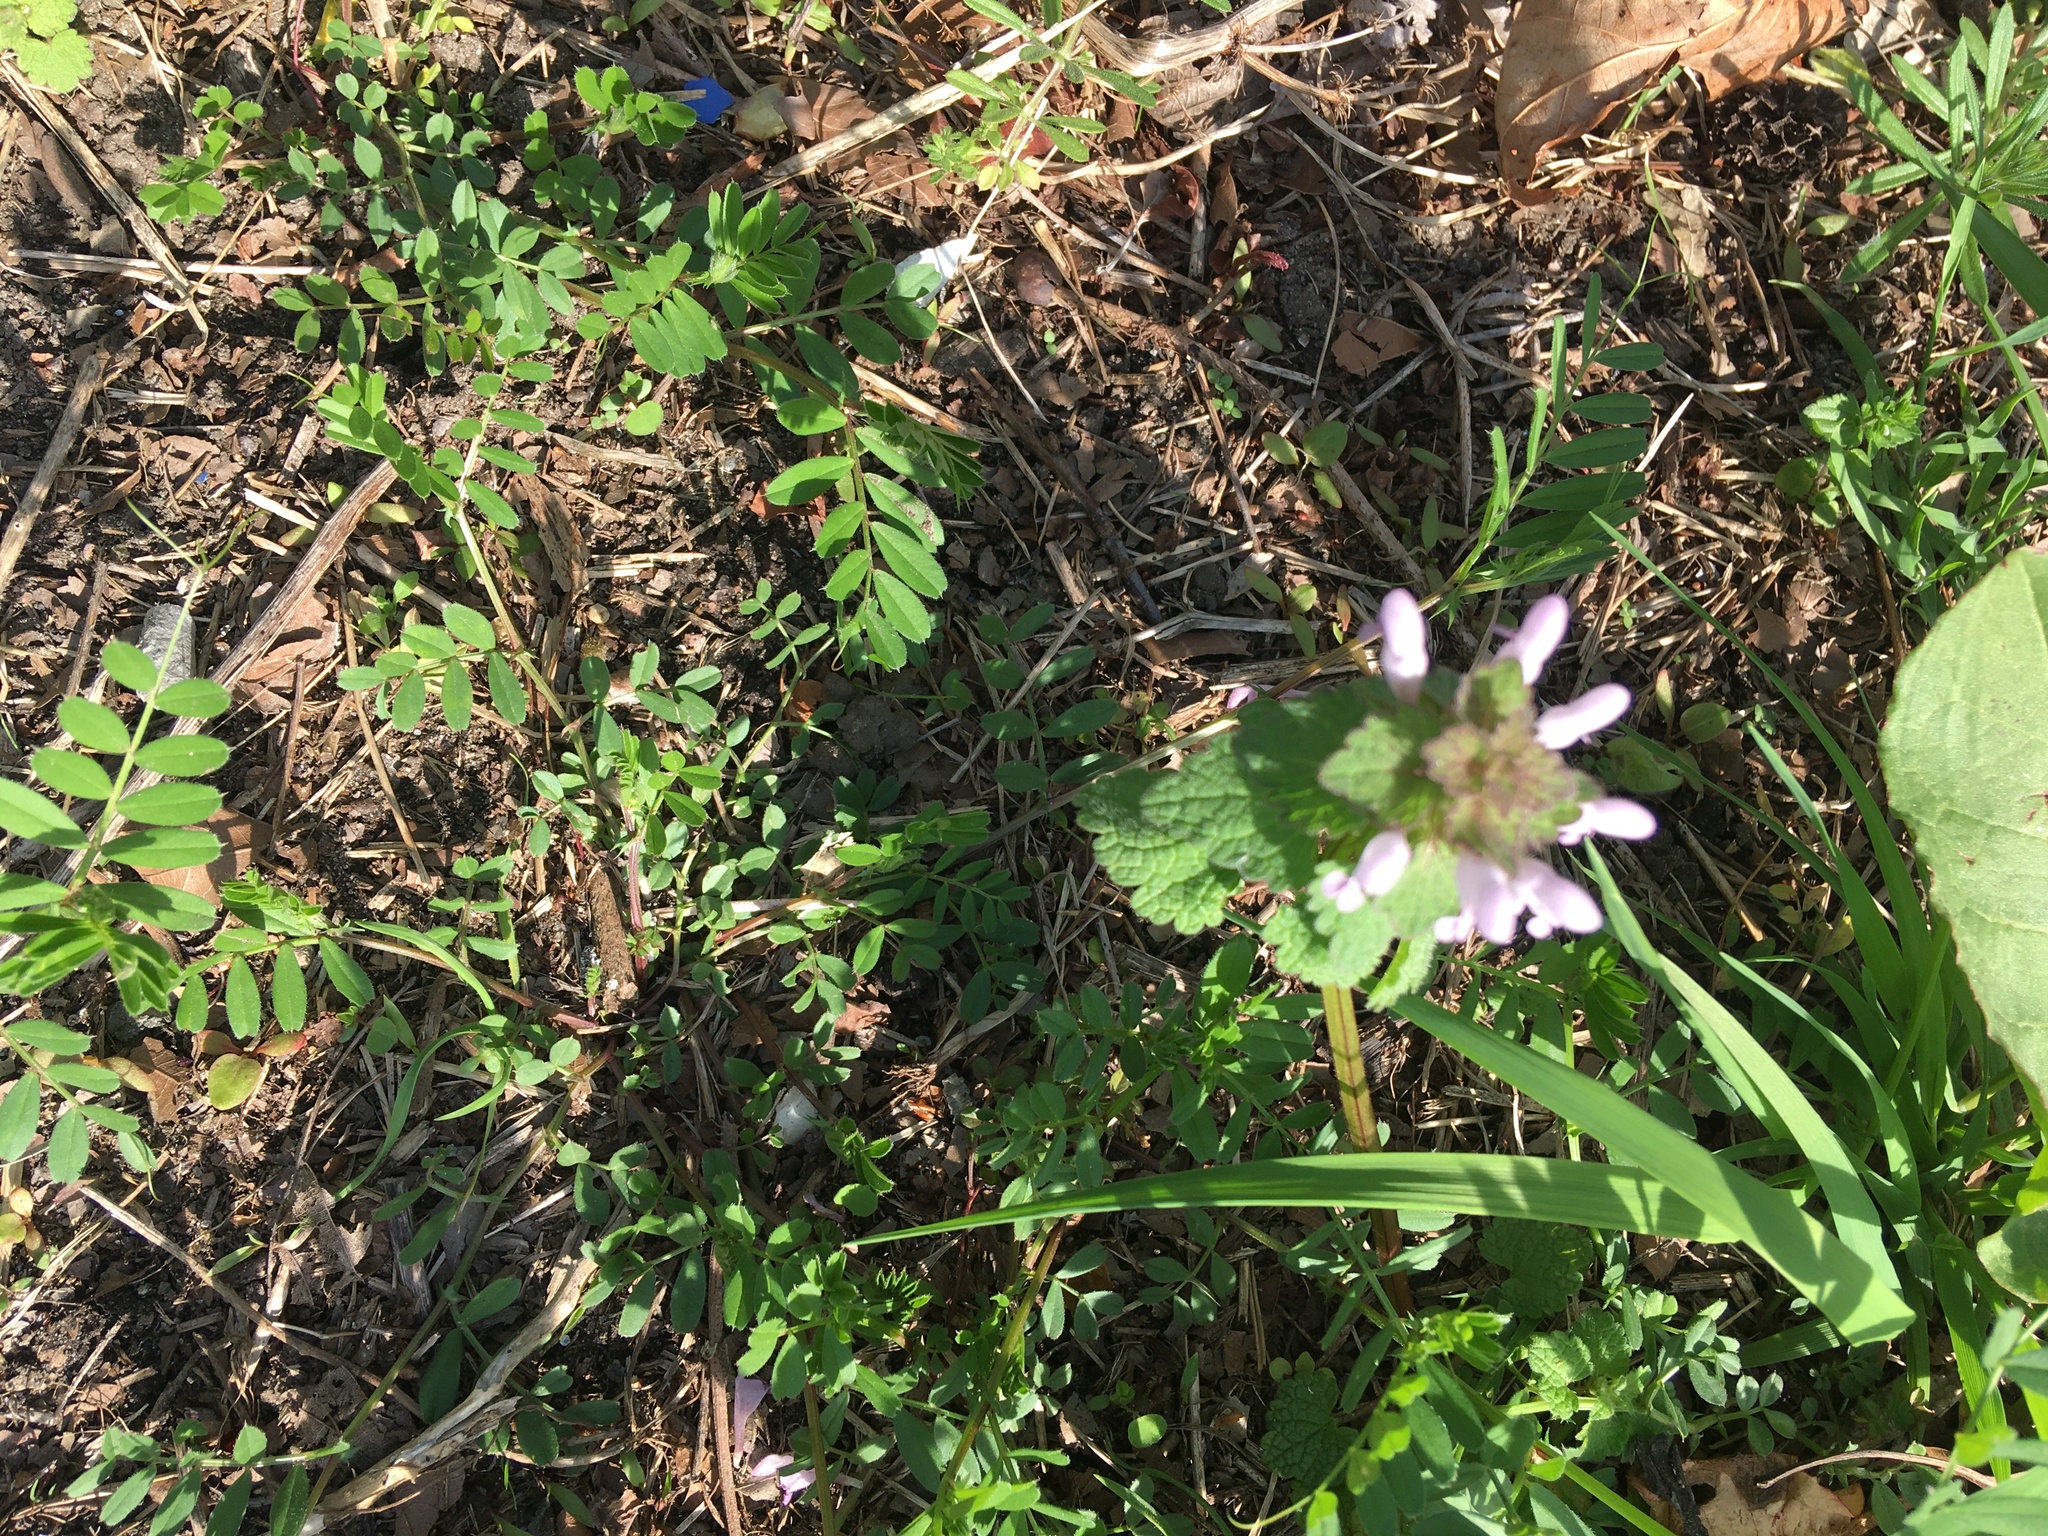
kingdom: Plantae
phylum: Tracheophyta
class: Magnoliopsida
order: Lamiales
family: Lamiaceae
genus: Lamium
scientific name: Lamium purpureum
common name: Red dead-nettle
